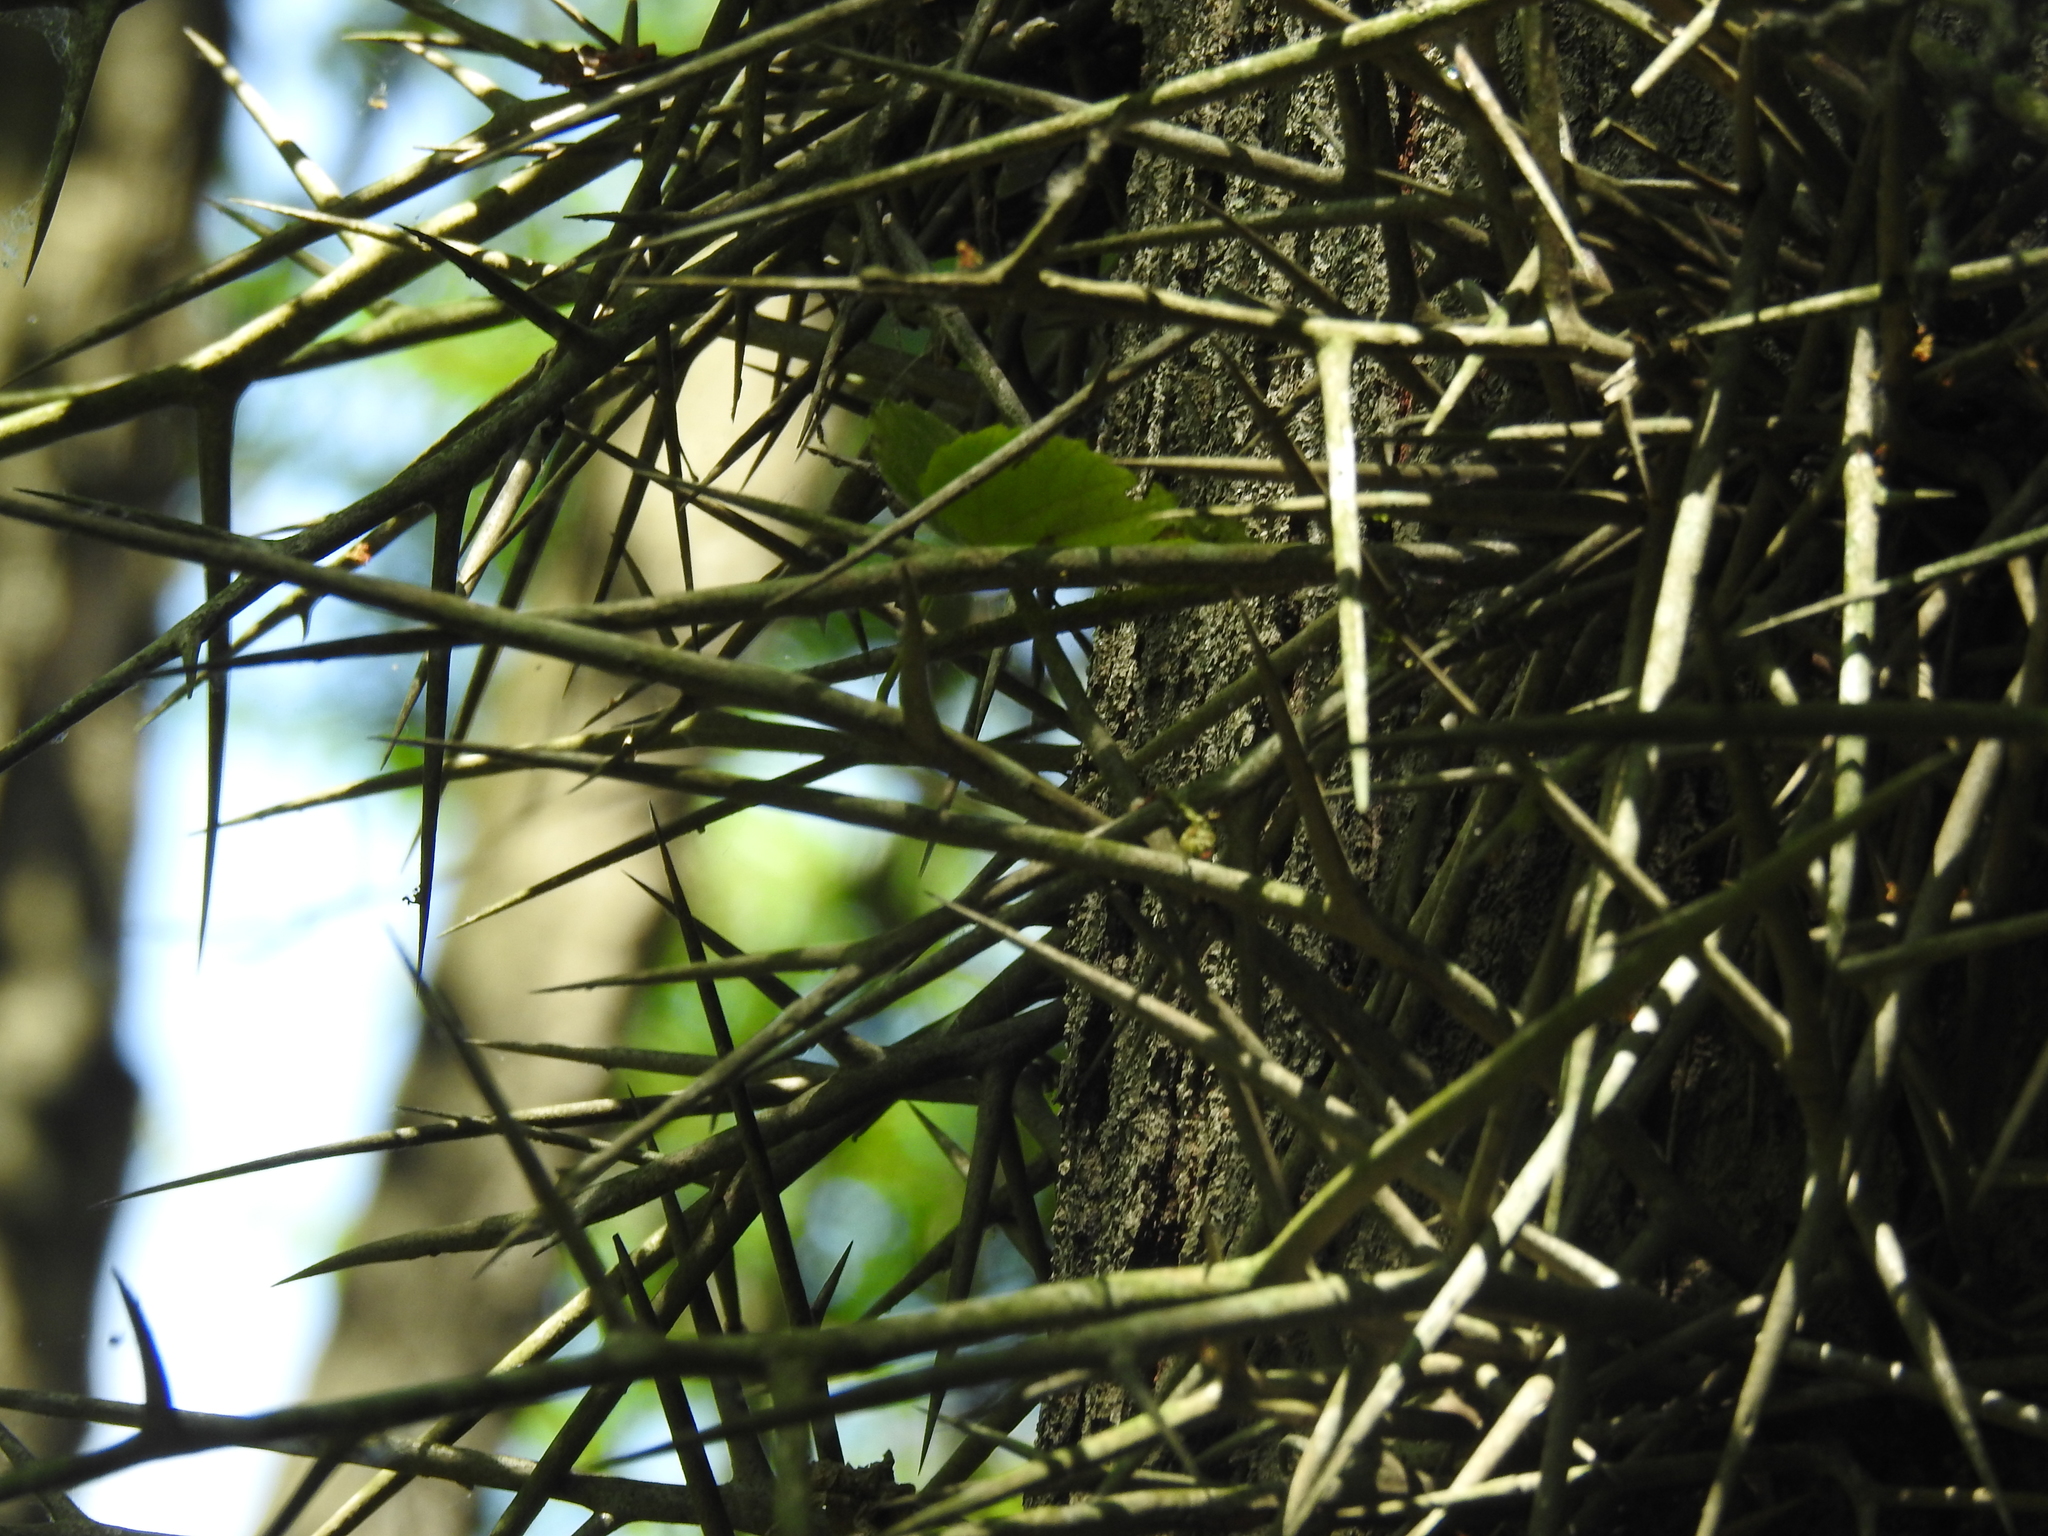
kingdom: Plantae
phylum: Tracheophyta
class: Magnoliopsida
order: Fabales
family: Fabaceae
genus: Gleditsia
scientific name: Gleditsia triacanthos
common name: Common honeylocust
